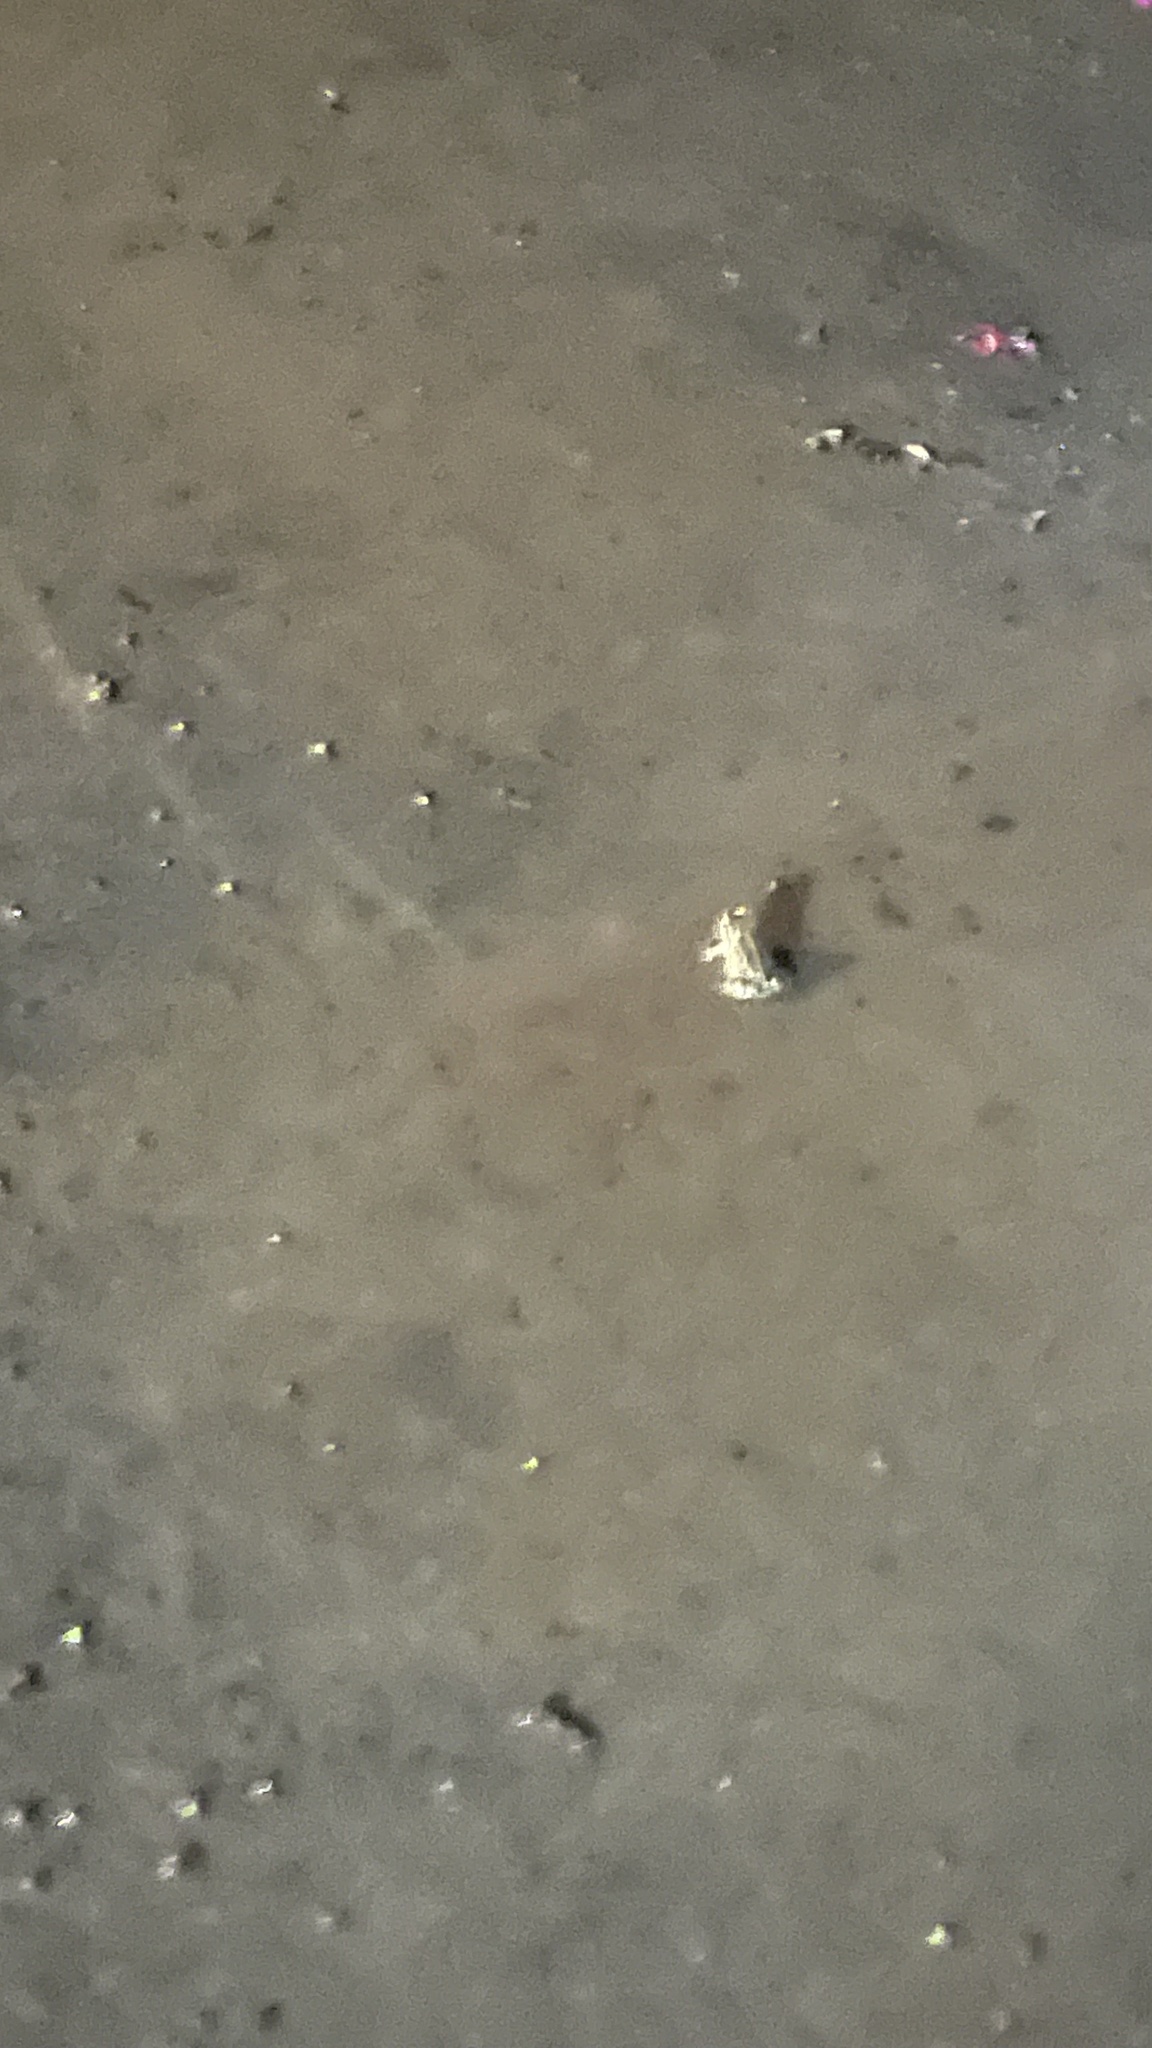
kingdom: Animalia
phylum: Chordata
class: Amphibia
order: Anura
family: Bufonidae
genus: Incilius
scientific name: Incilius nebulifer
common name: Gulf coast toad
